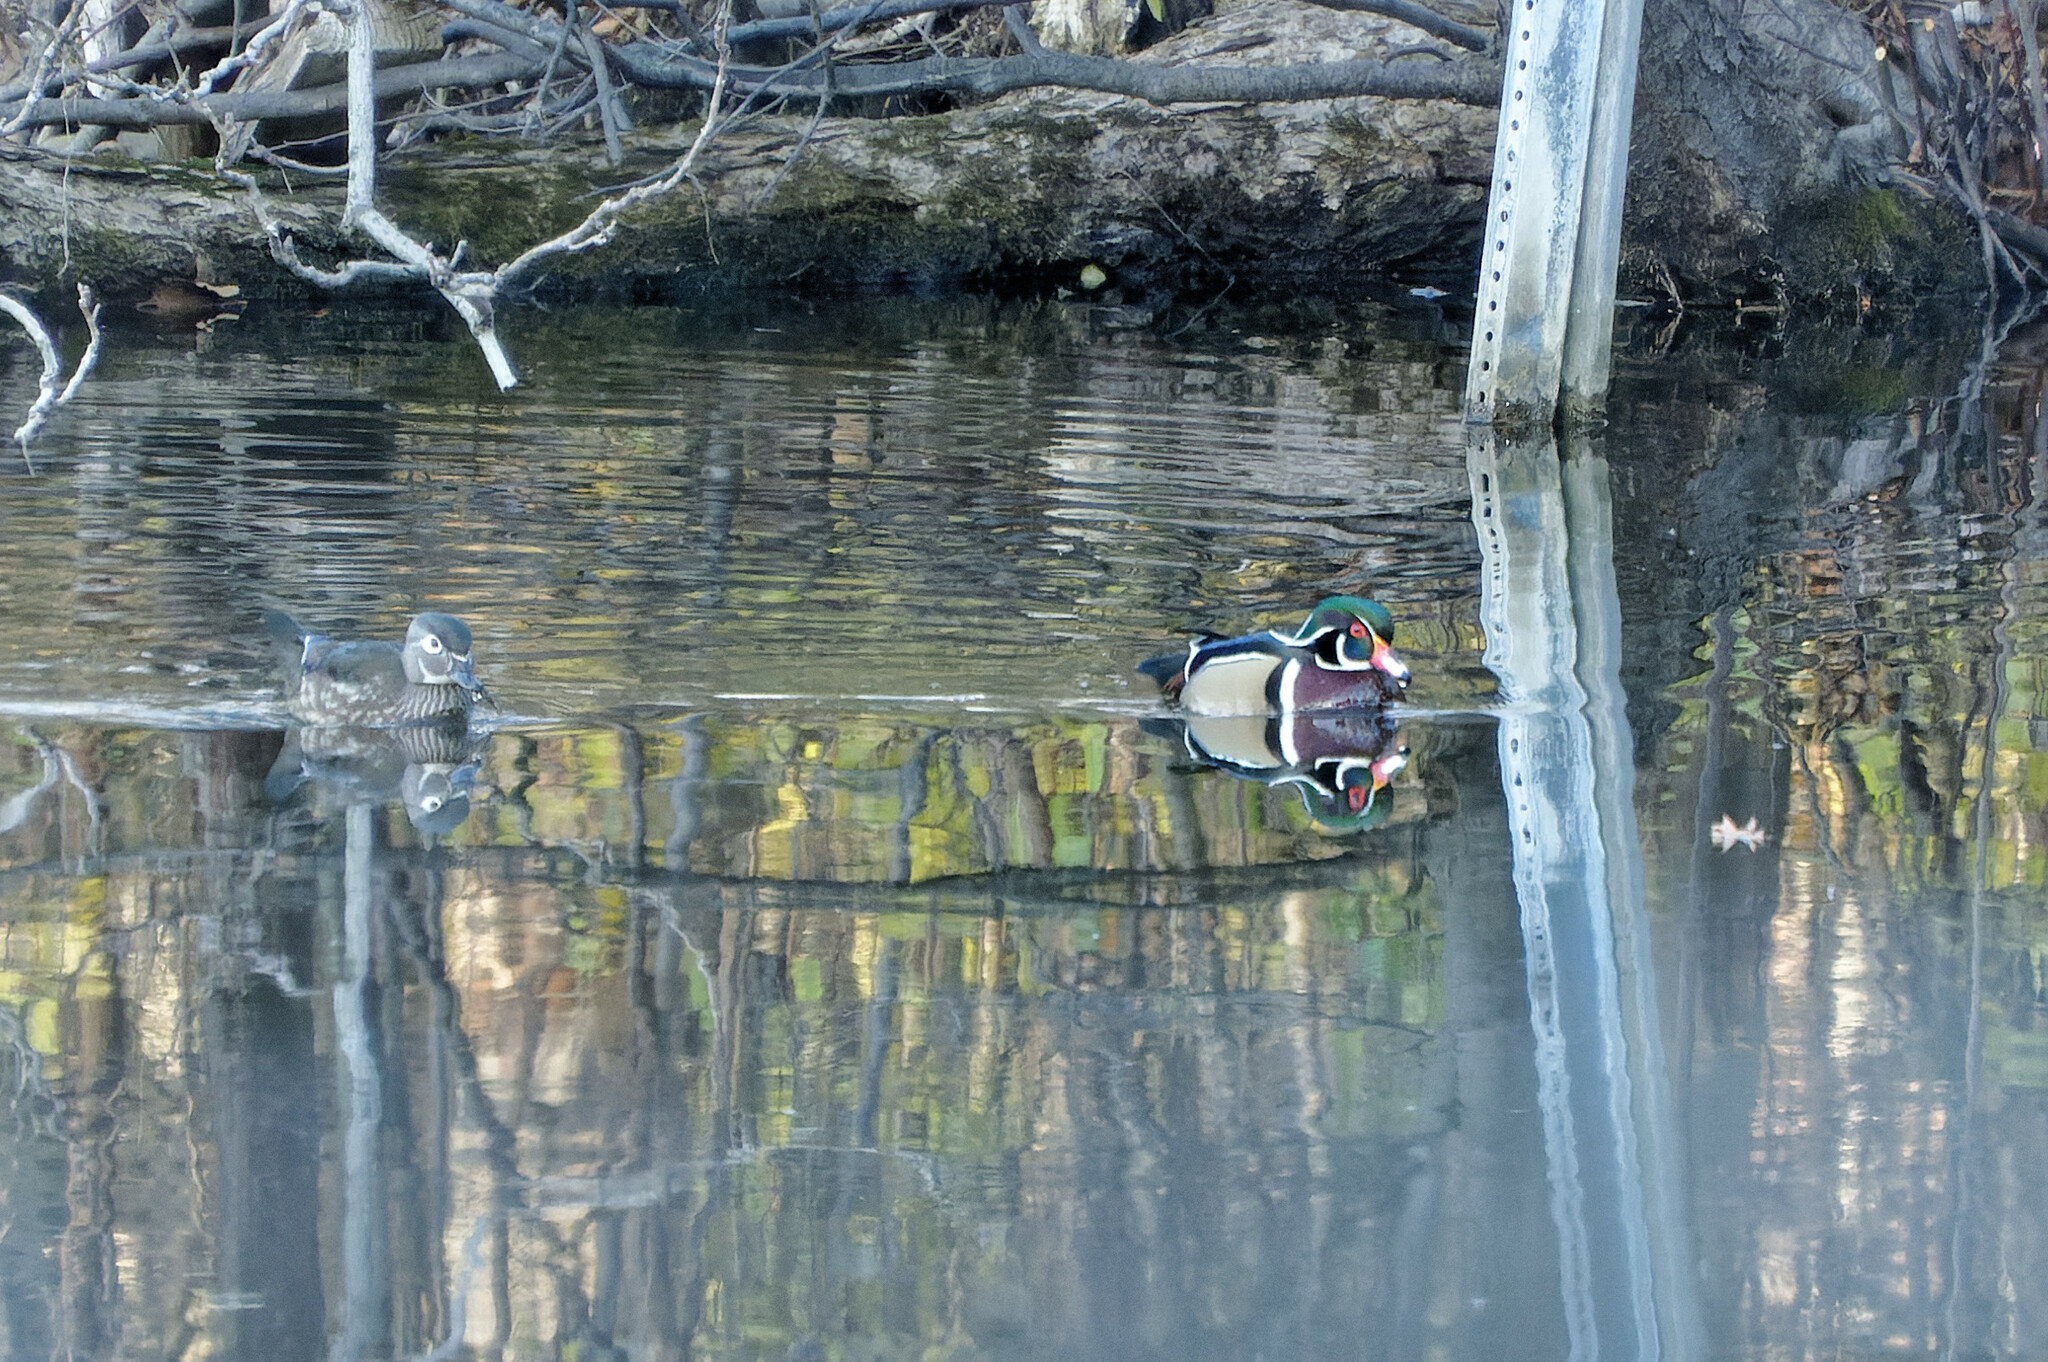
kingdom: Animalia
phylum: Chordata
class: Aves
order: Anseriformes
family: Anatidae
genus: Aix
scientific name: Aix sponsa
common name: Wood duck
